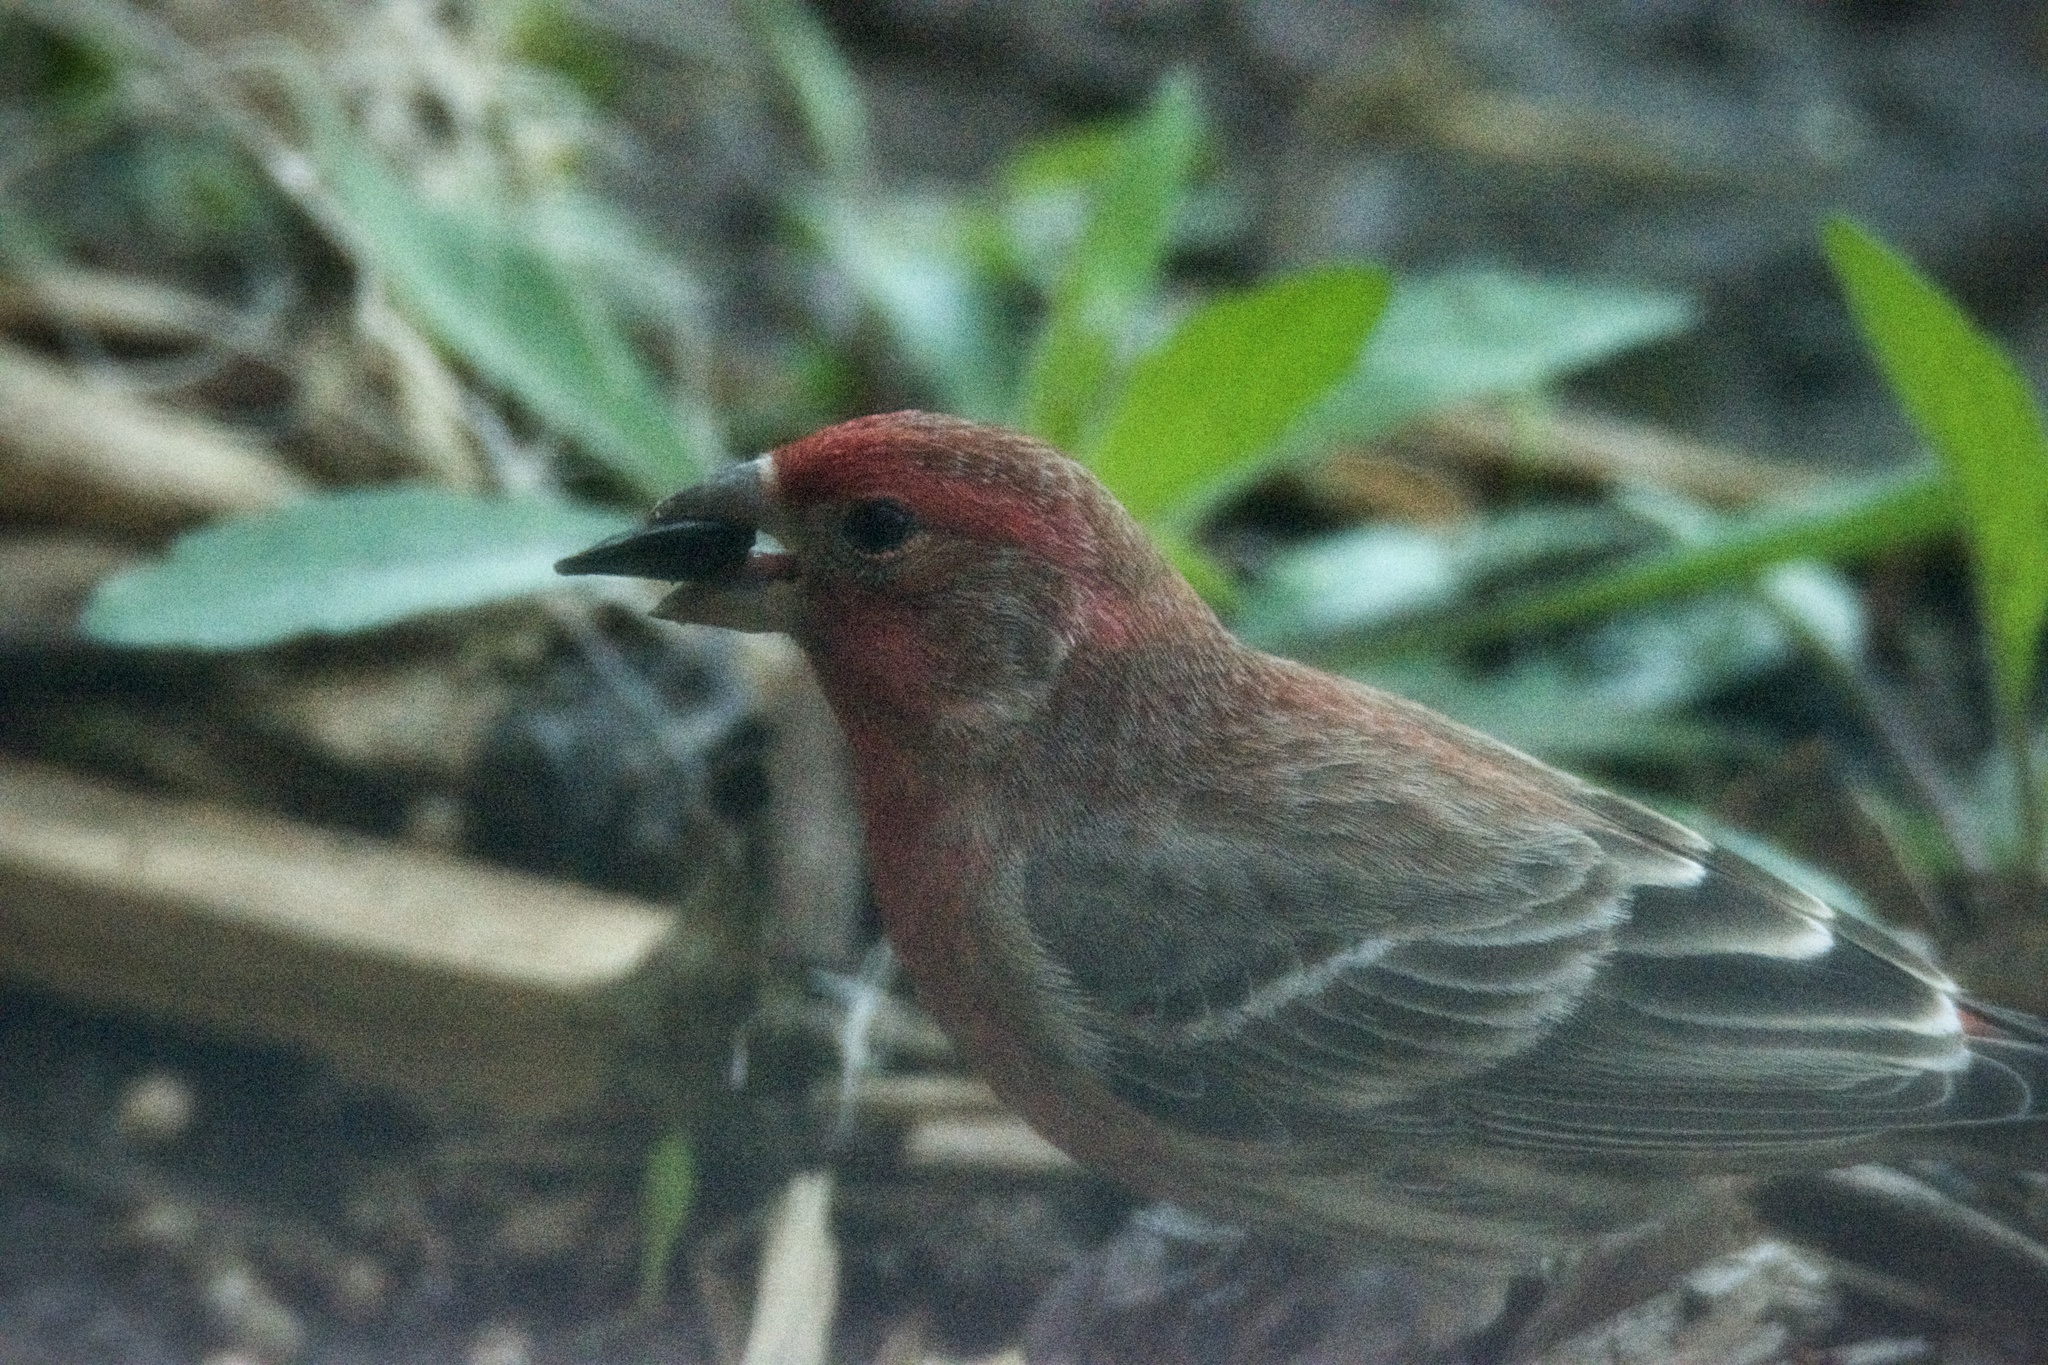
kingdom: Animalia
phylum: Chordata
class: Aves
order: Passeriformes
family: Fringillidae
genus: Haemorhous
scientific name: Haemorhous mexicanus
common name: House finch
